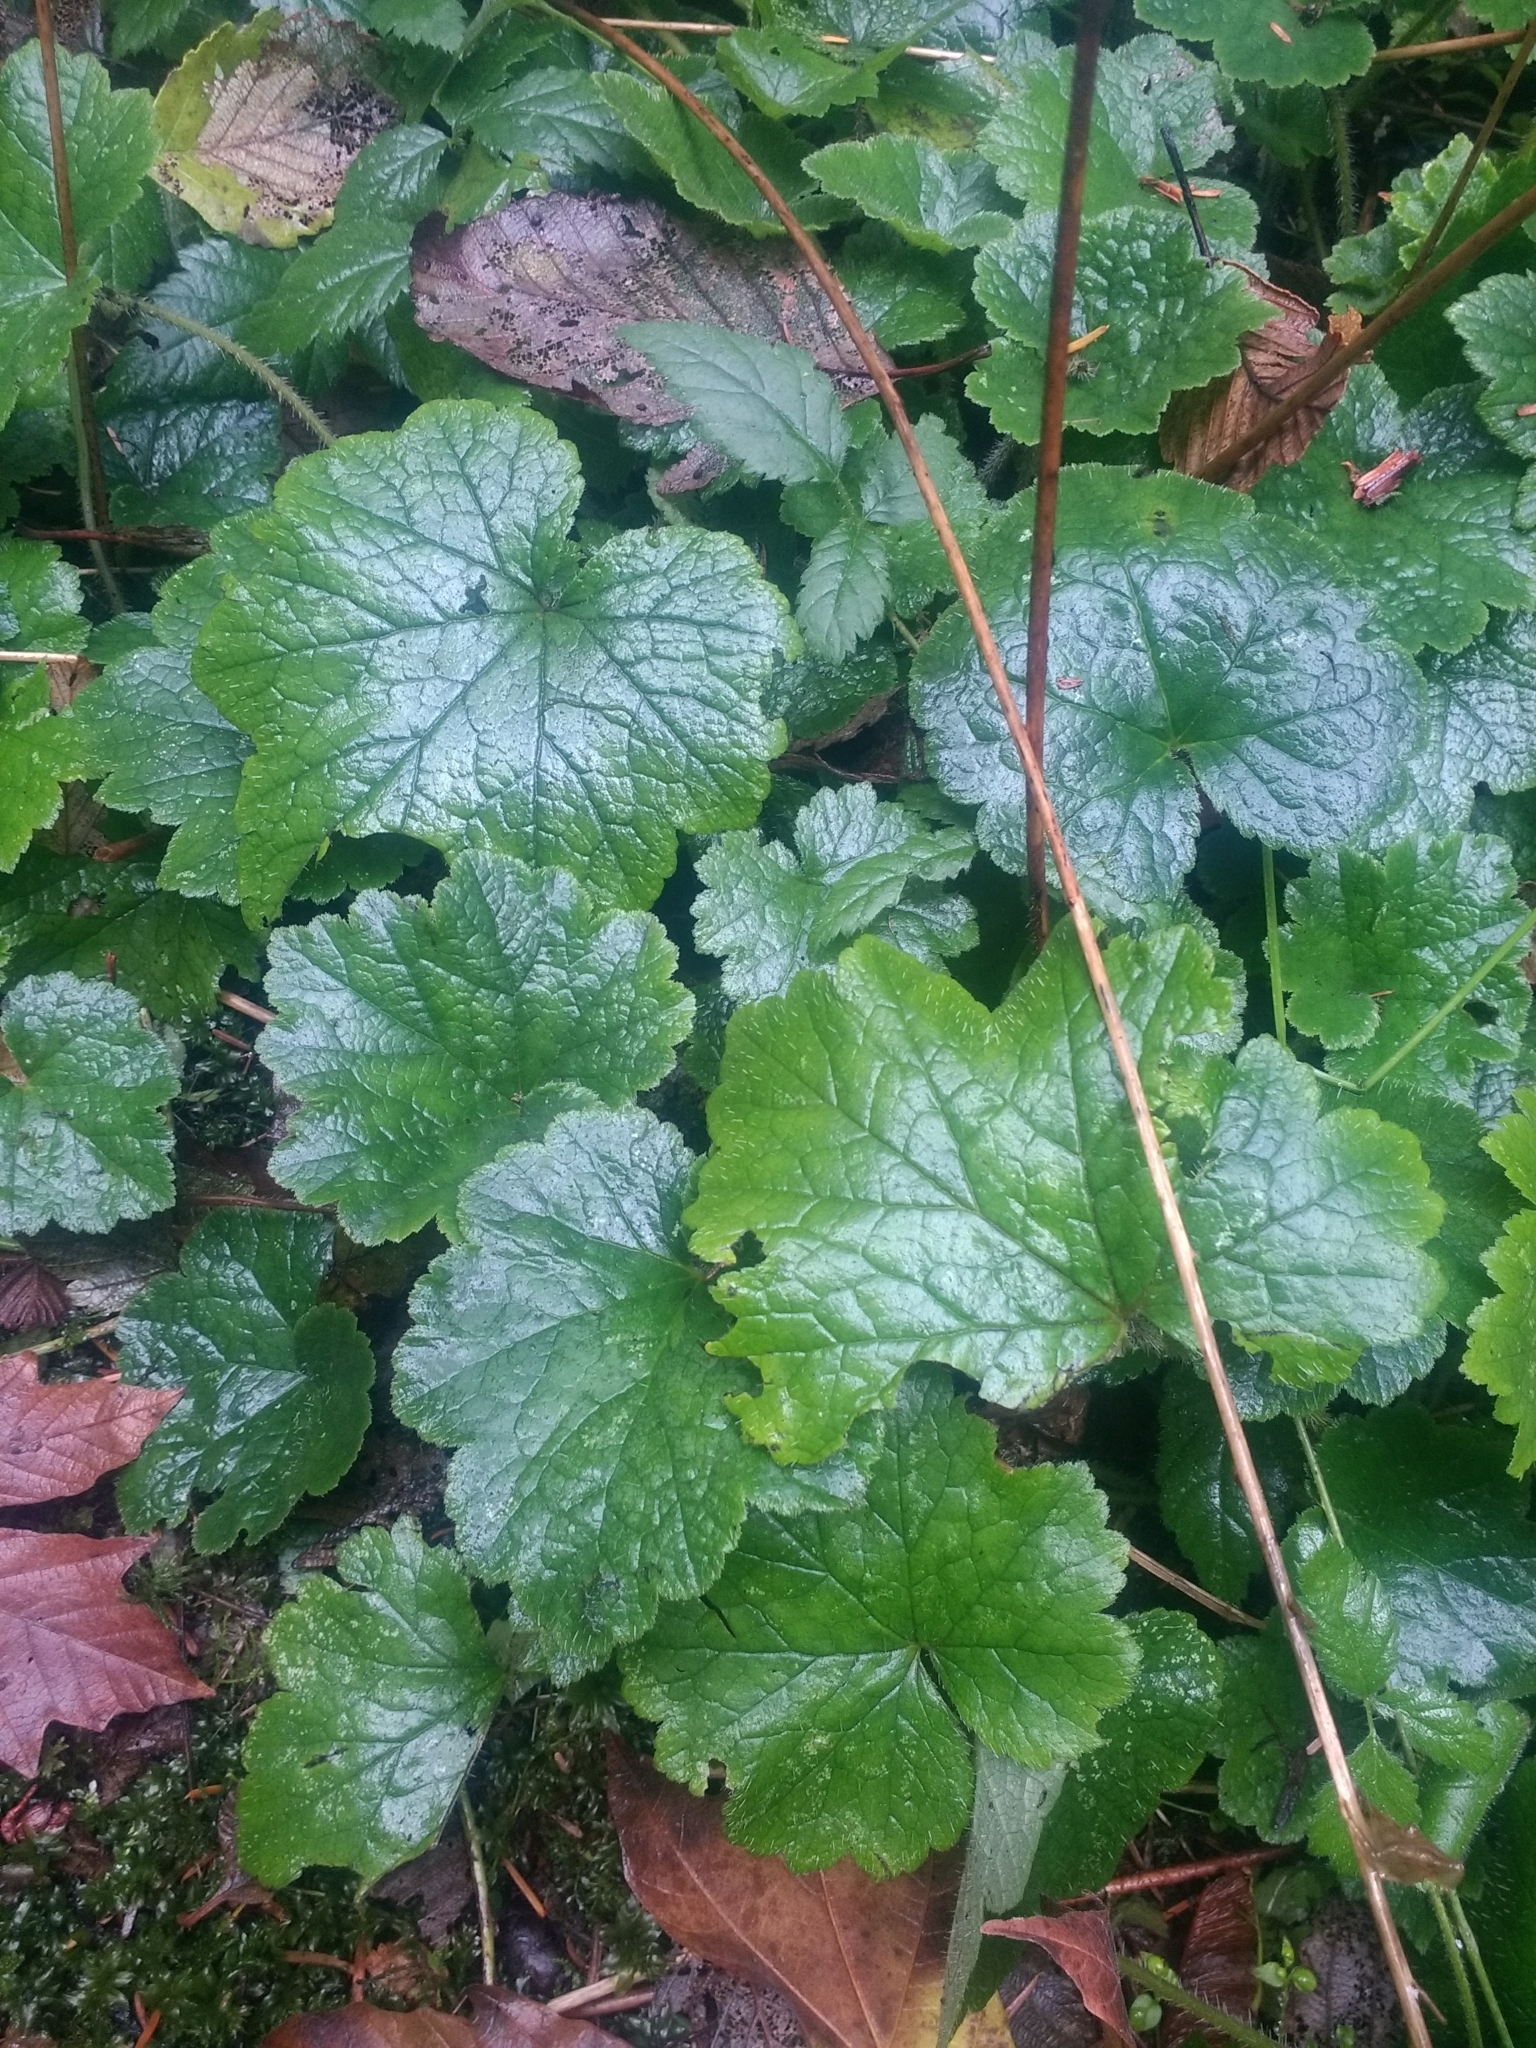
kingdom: Plantae
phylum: Tracheophyta
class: Magnoliopsida
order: Saxifragales
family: Saxifragaceae
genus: Tolmiea
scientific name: Tolmiea menziesii
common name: Pick-a-back-plant
